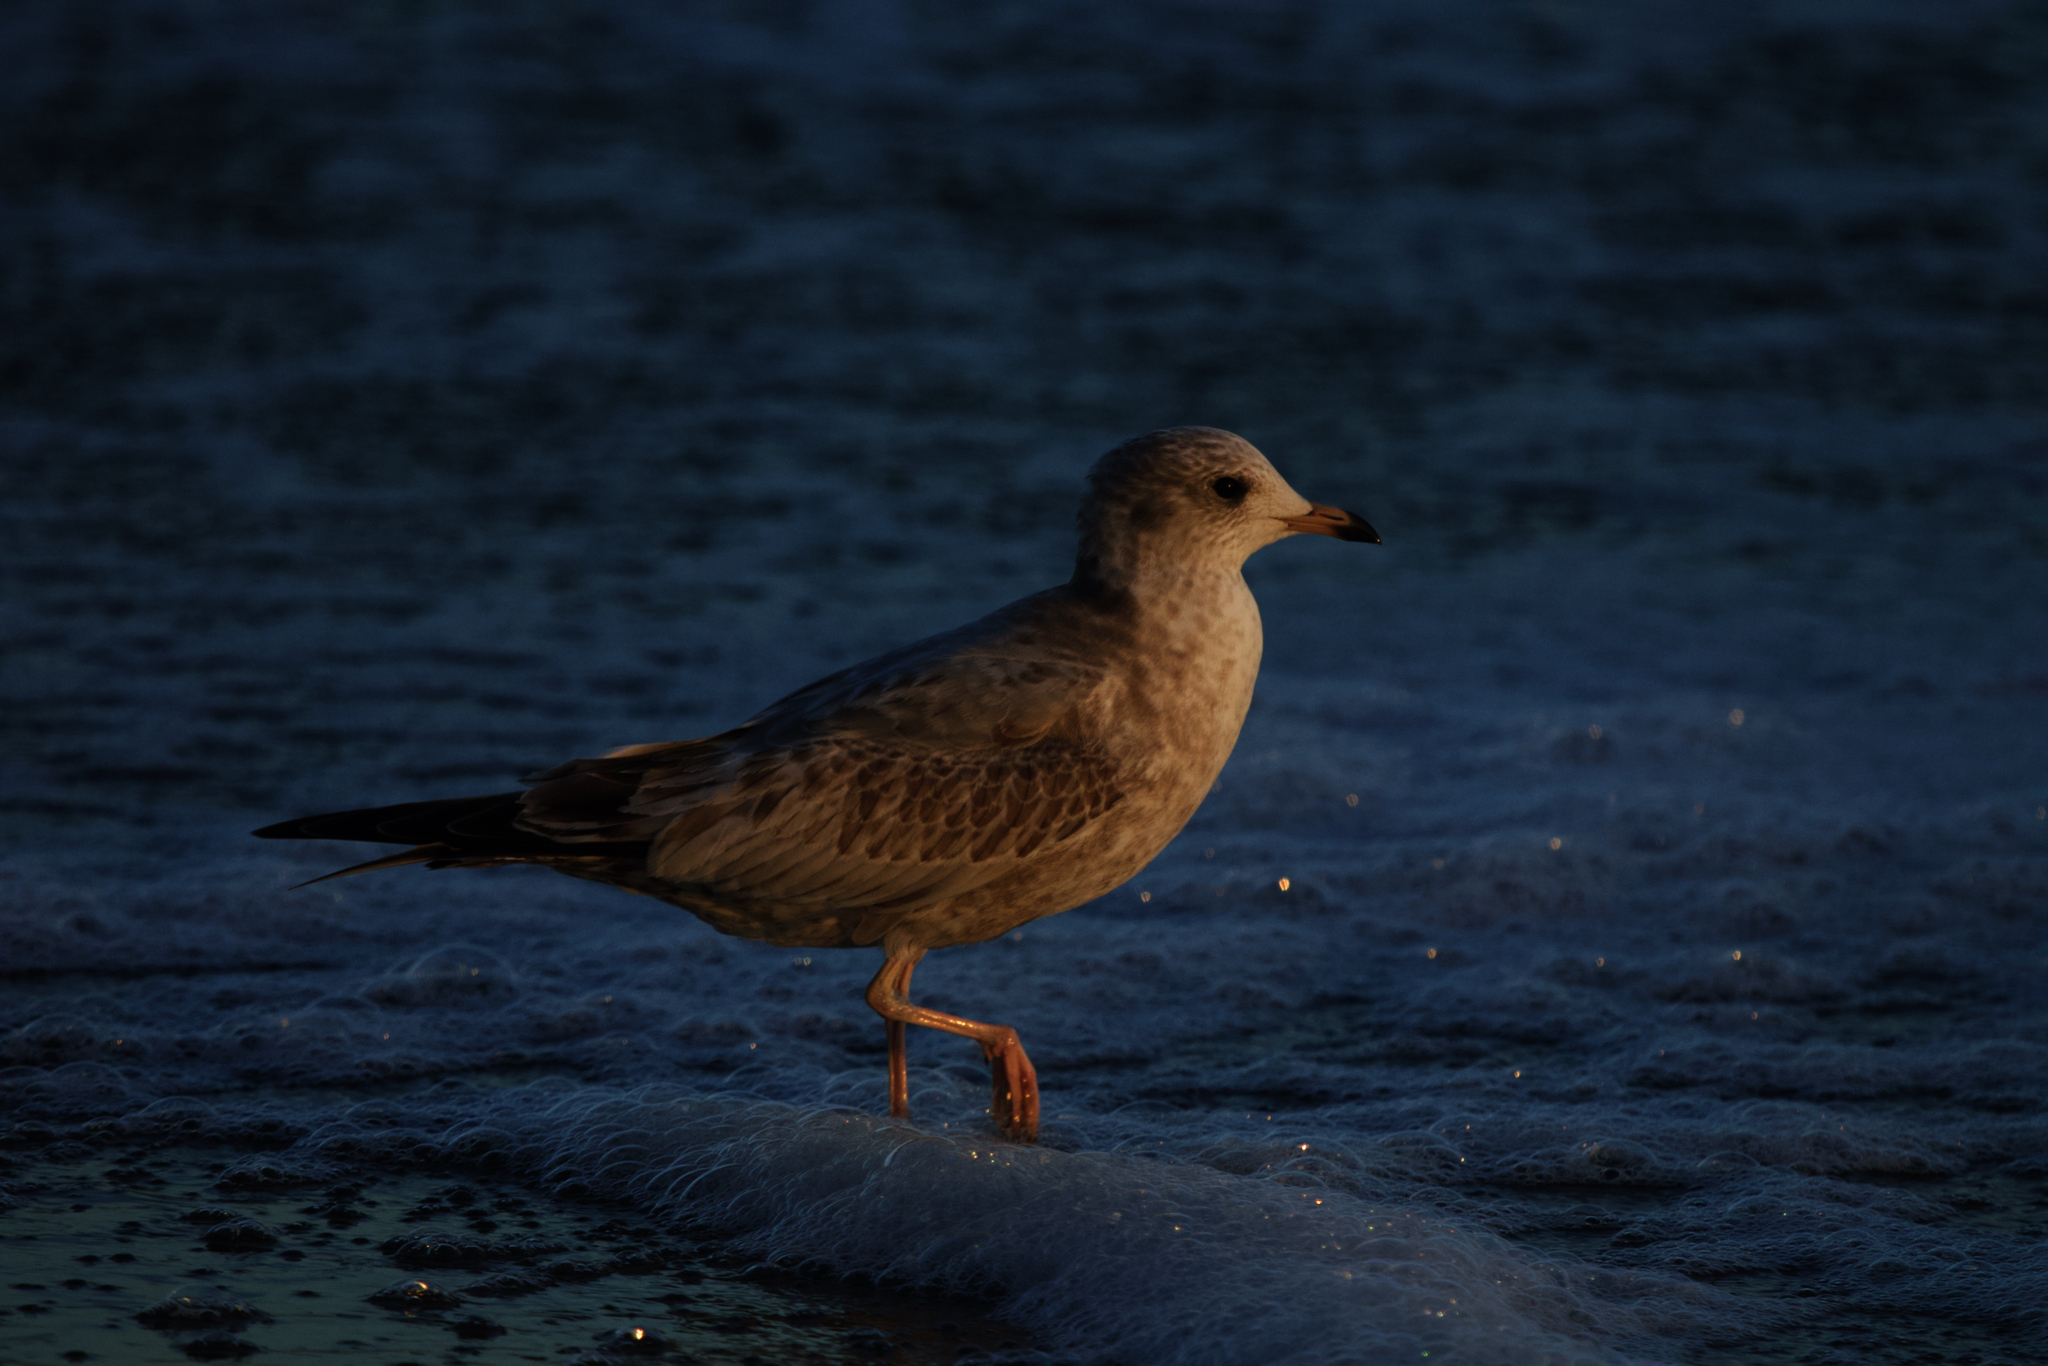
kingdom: Animalia
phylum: Chordata
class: Aves
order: Charadriiformes
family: Laridae
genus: Larus
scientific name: Larus brachyrhynchus
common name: Short-billed gull
